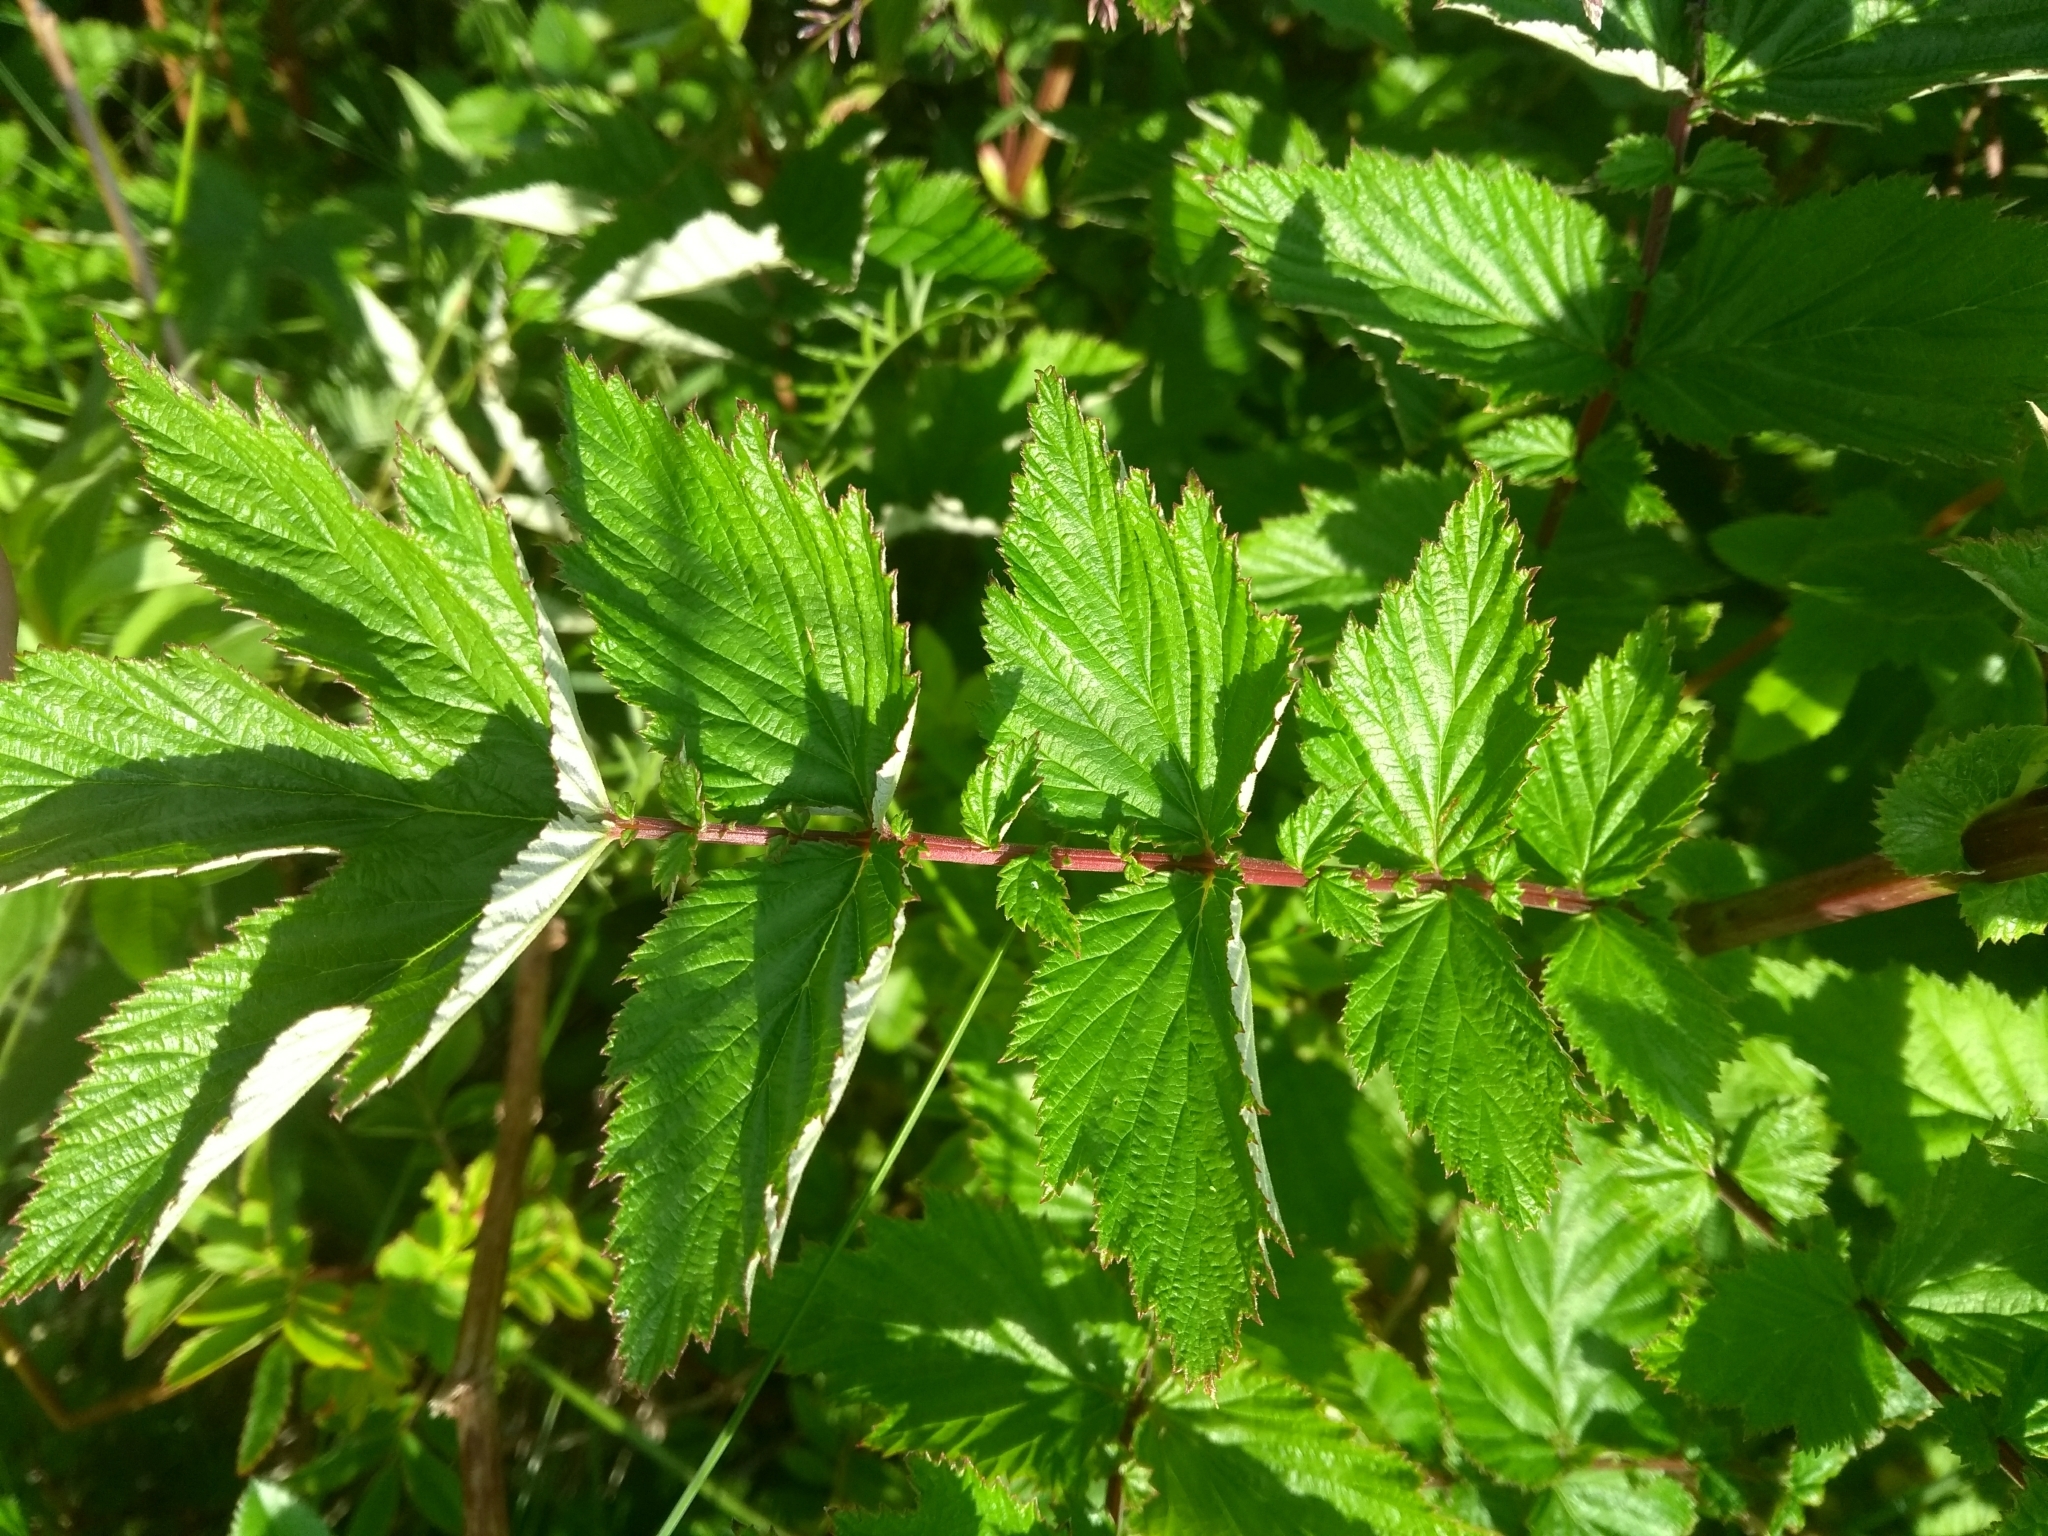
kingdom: Plantae
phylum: Tracheophyta
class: Magnoliopsida
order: Rosales
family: Rosaceae
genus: Filipendula
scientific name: Filipendula ulmaria
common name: Meadowsweet
